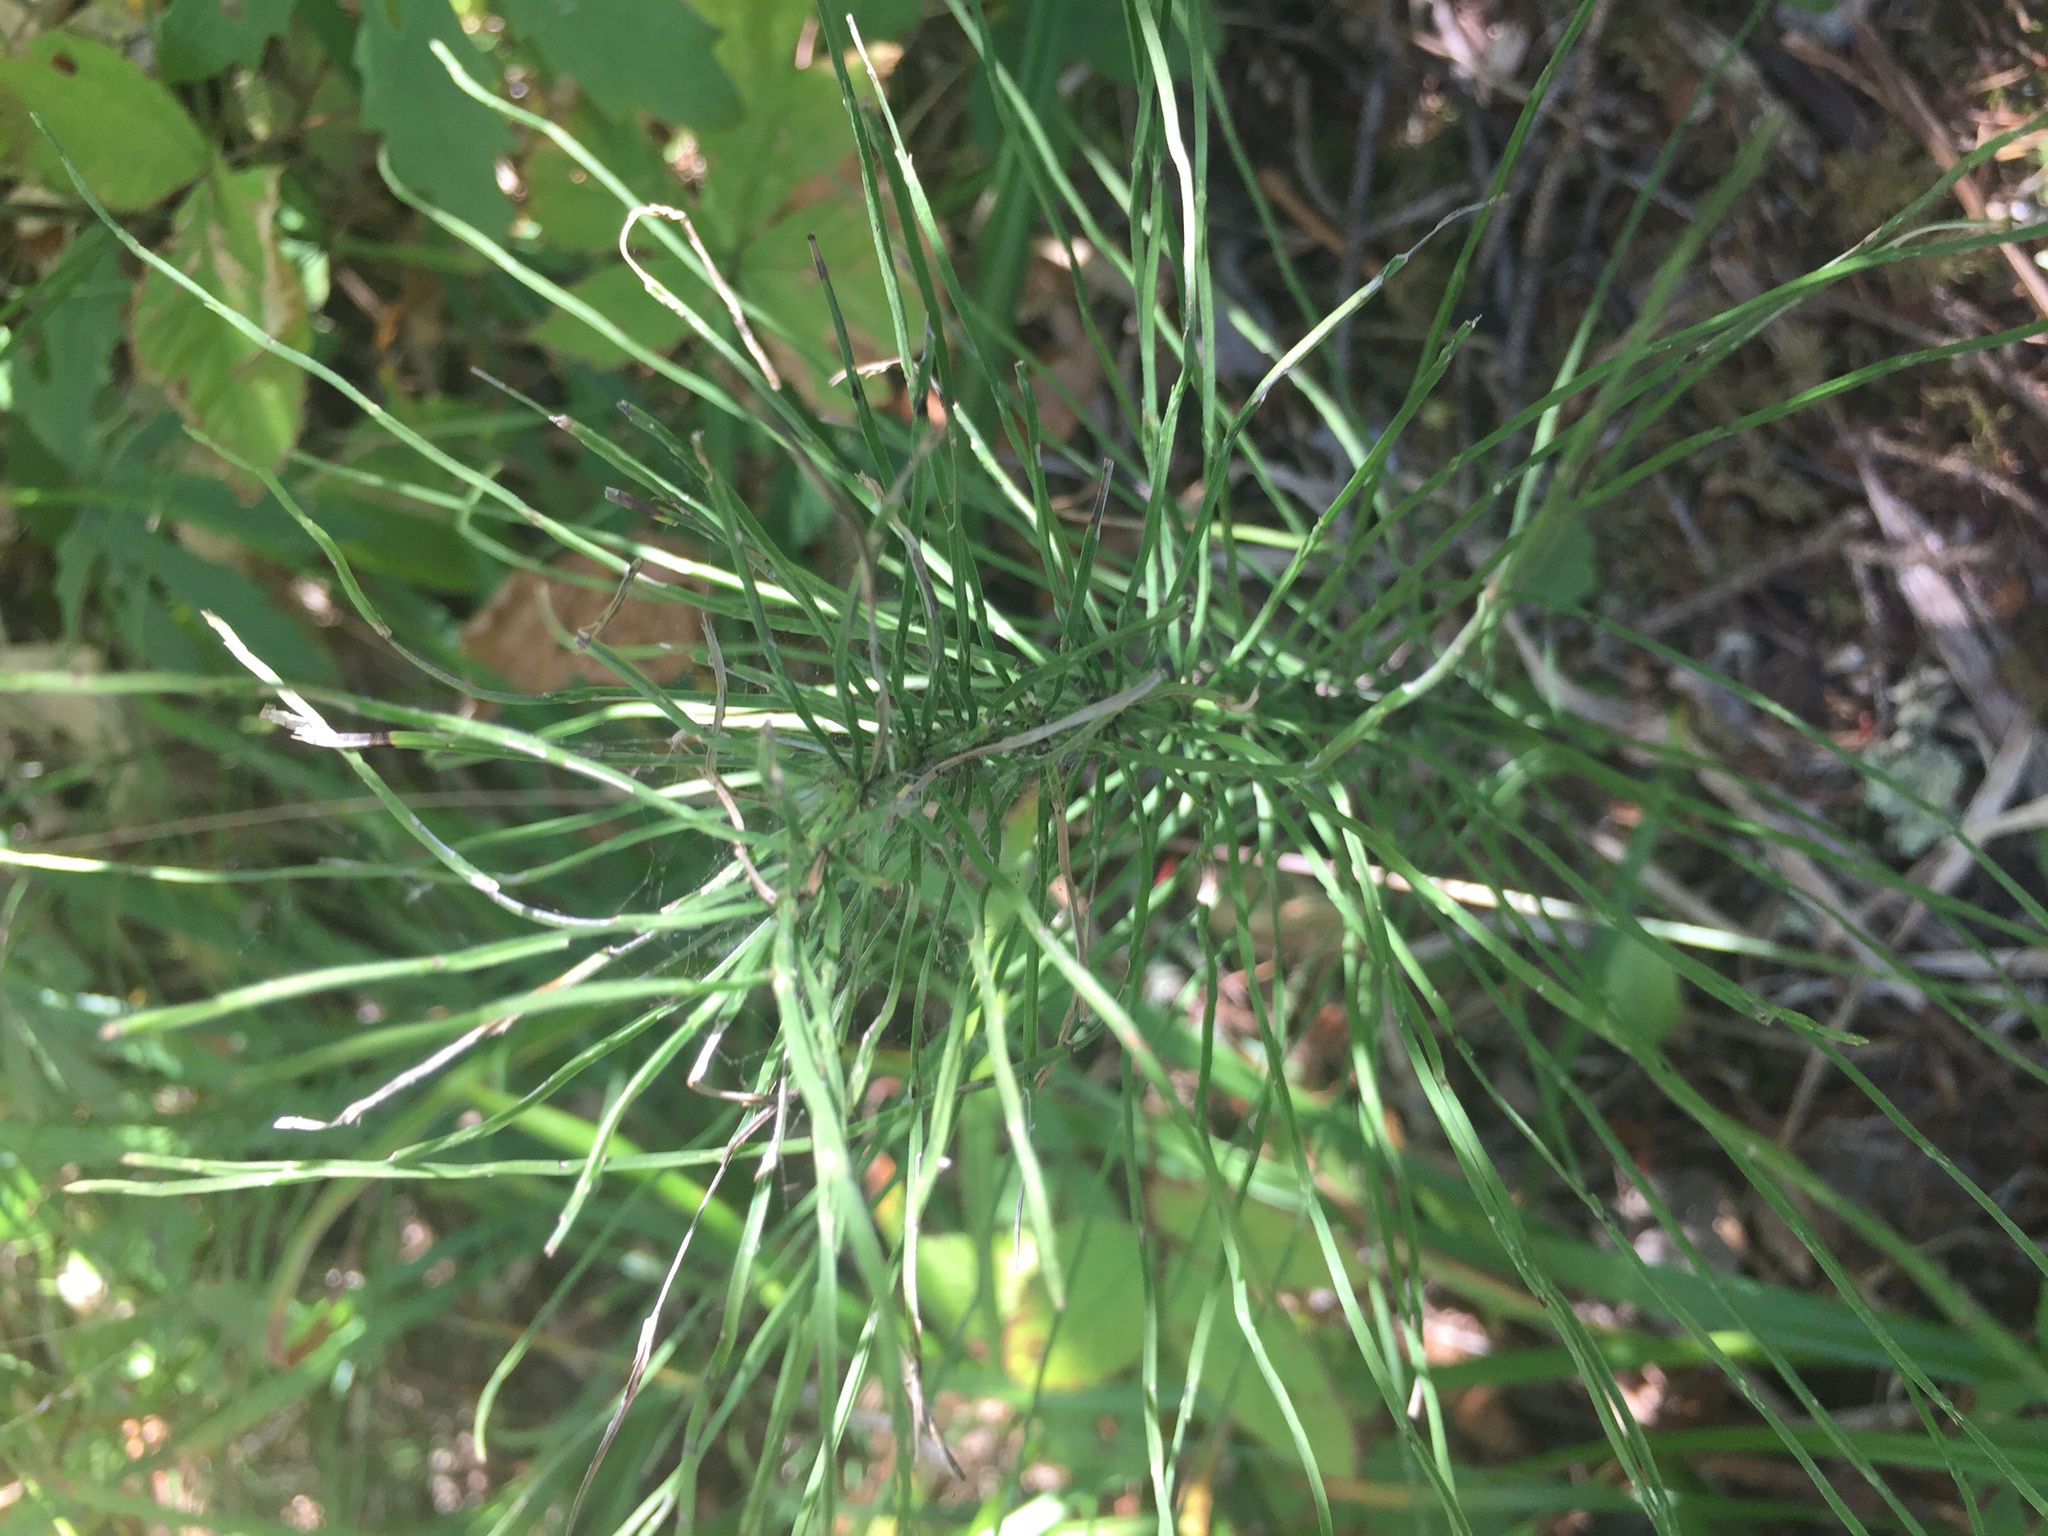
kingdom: Plantae
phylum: Tracheophyta
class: Polypodiopsida
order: Equisetales
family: Equisetaceae
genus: Equisetum
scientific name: Equisetum arvense
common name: Field horsetail
